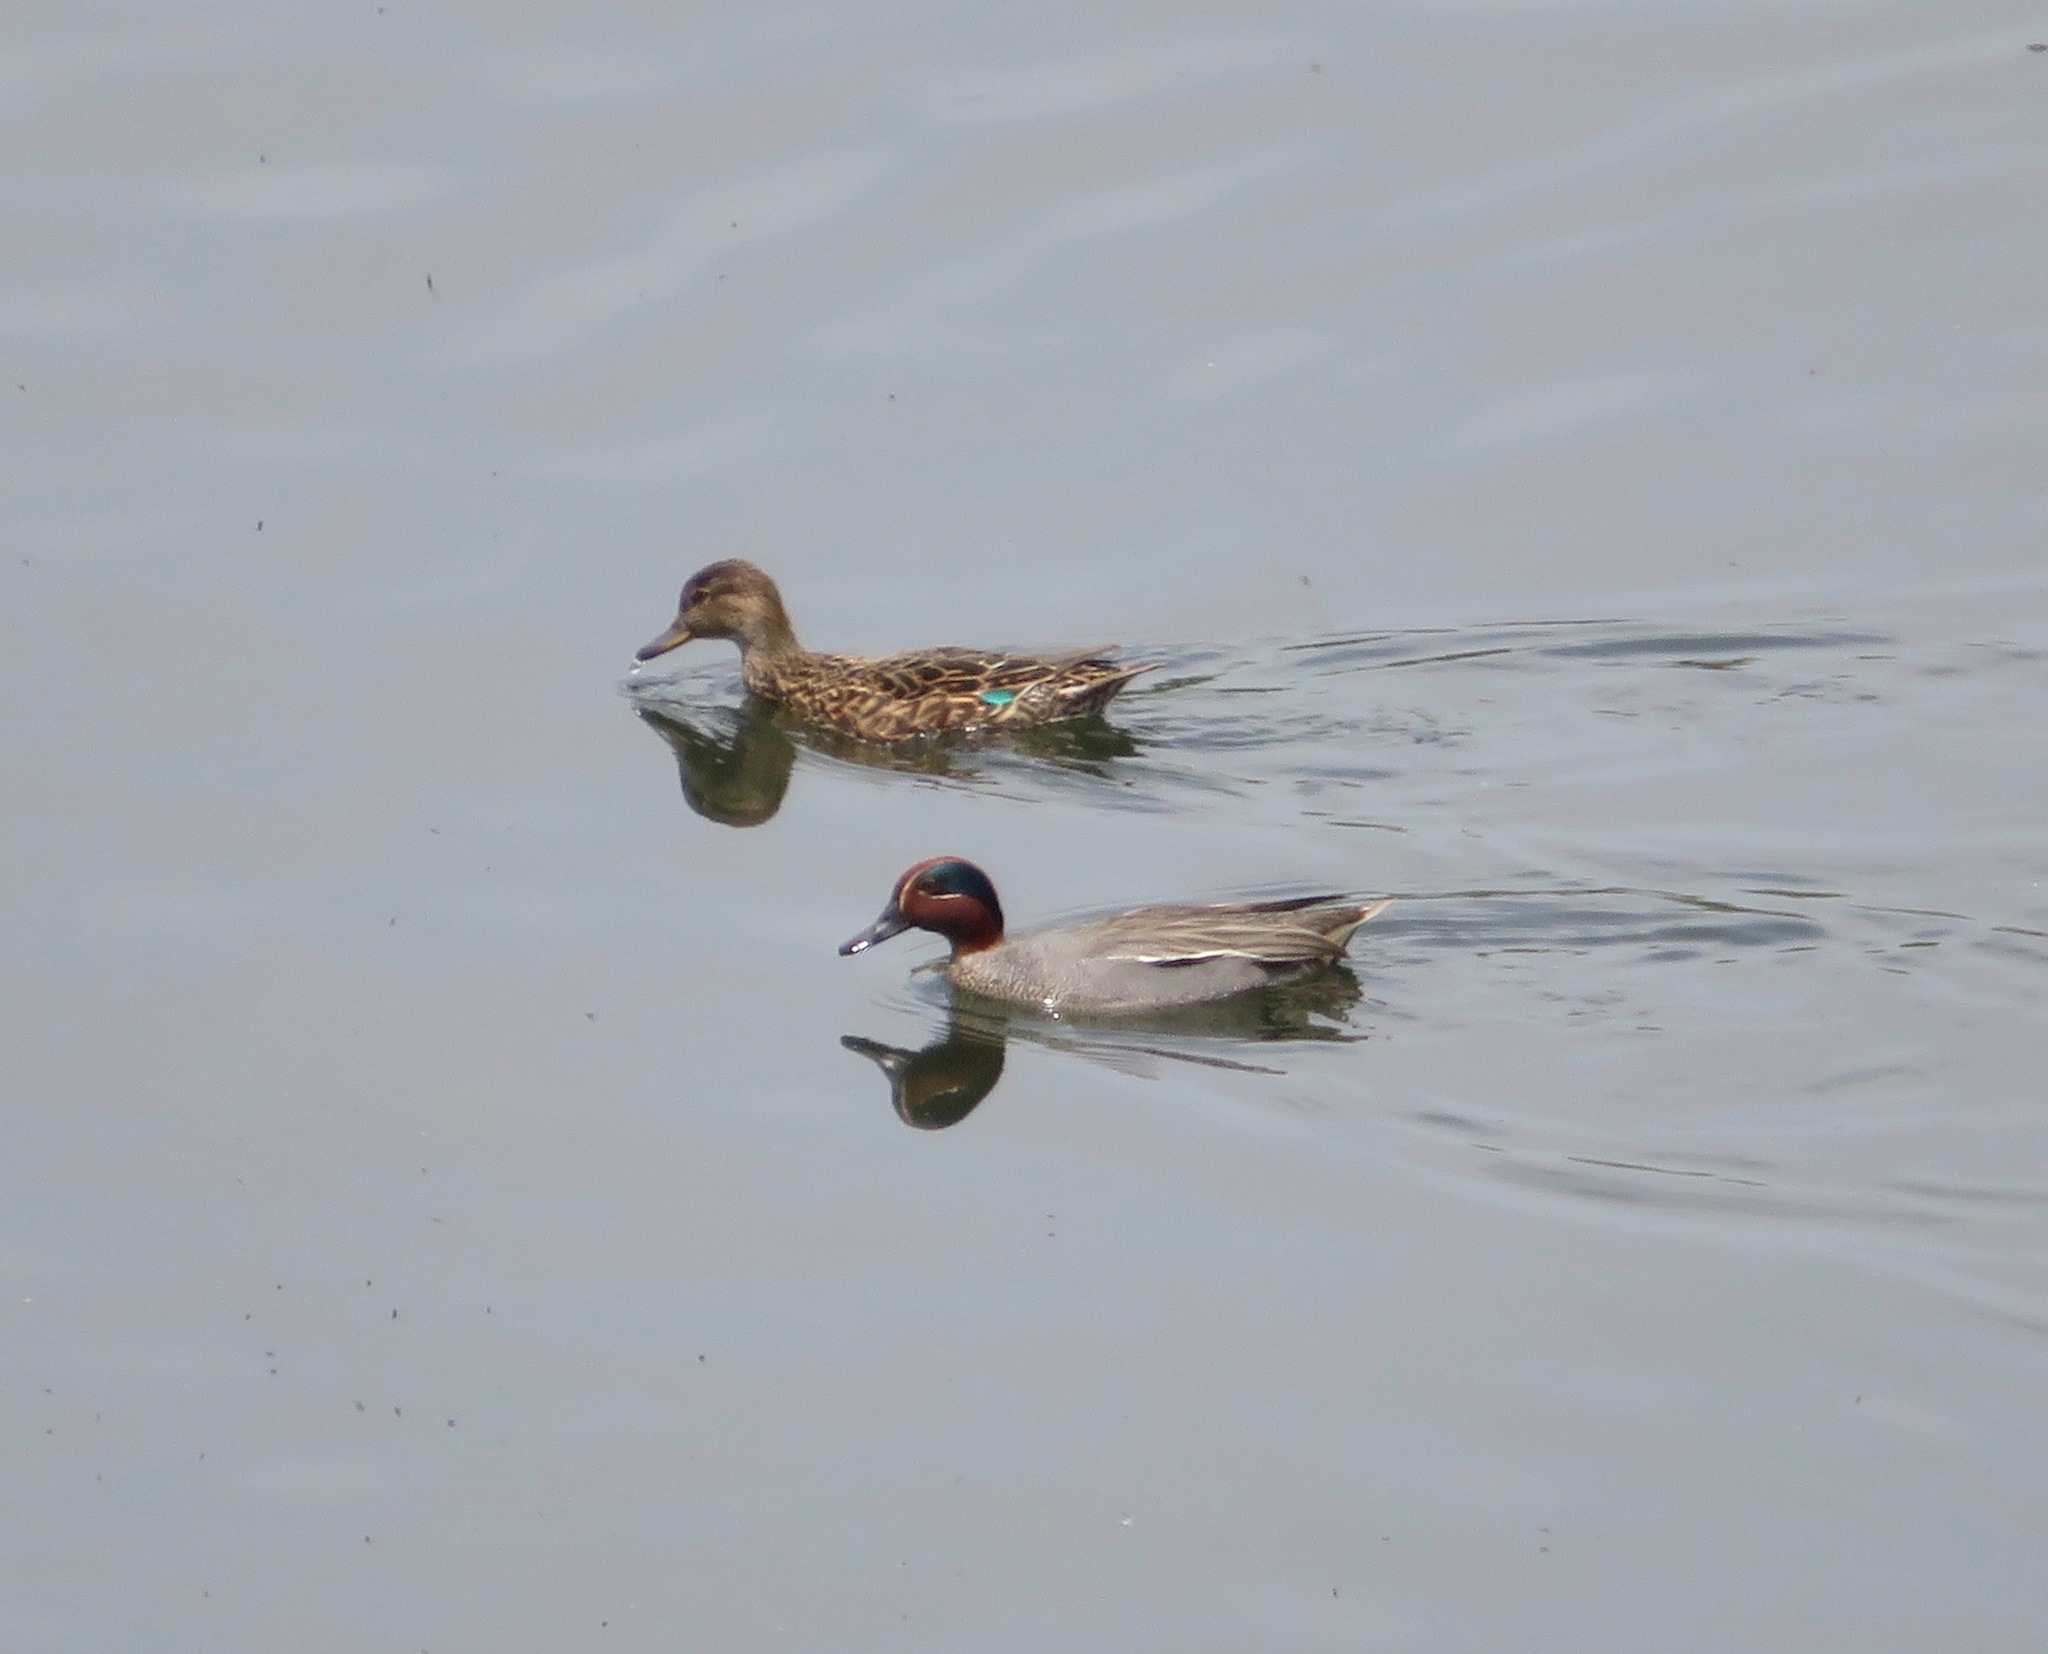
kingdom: Animalia
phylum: Chordata
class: Aves
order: Anseriformes
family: Anatidae
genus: Anas
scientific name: Anas crecca
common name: Eurasian teal
